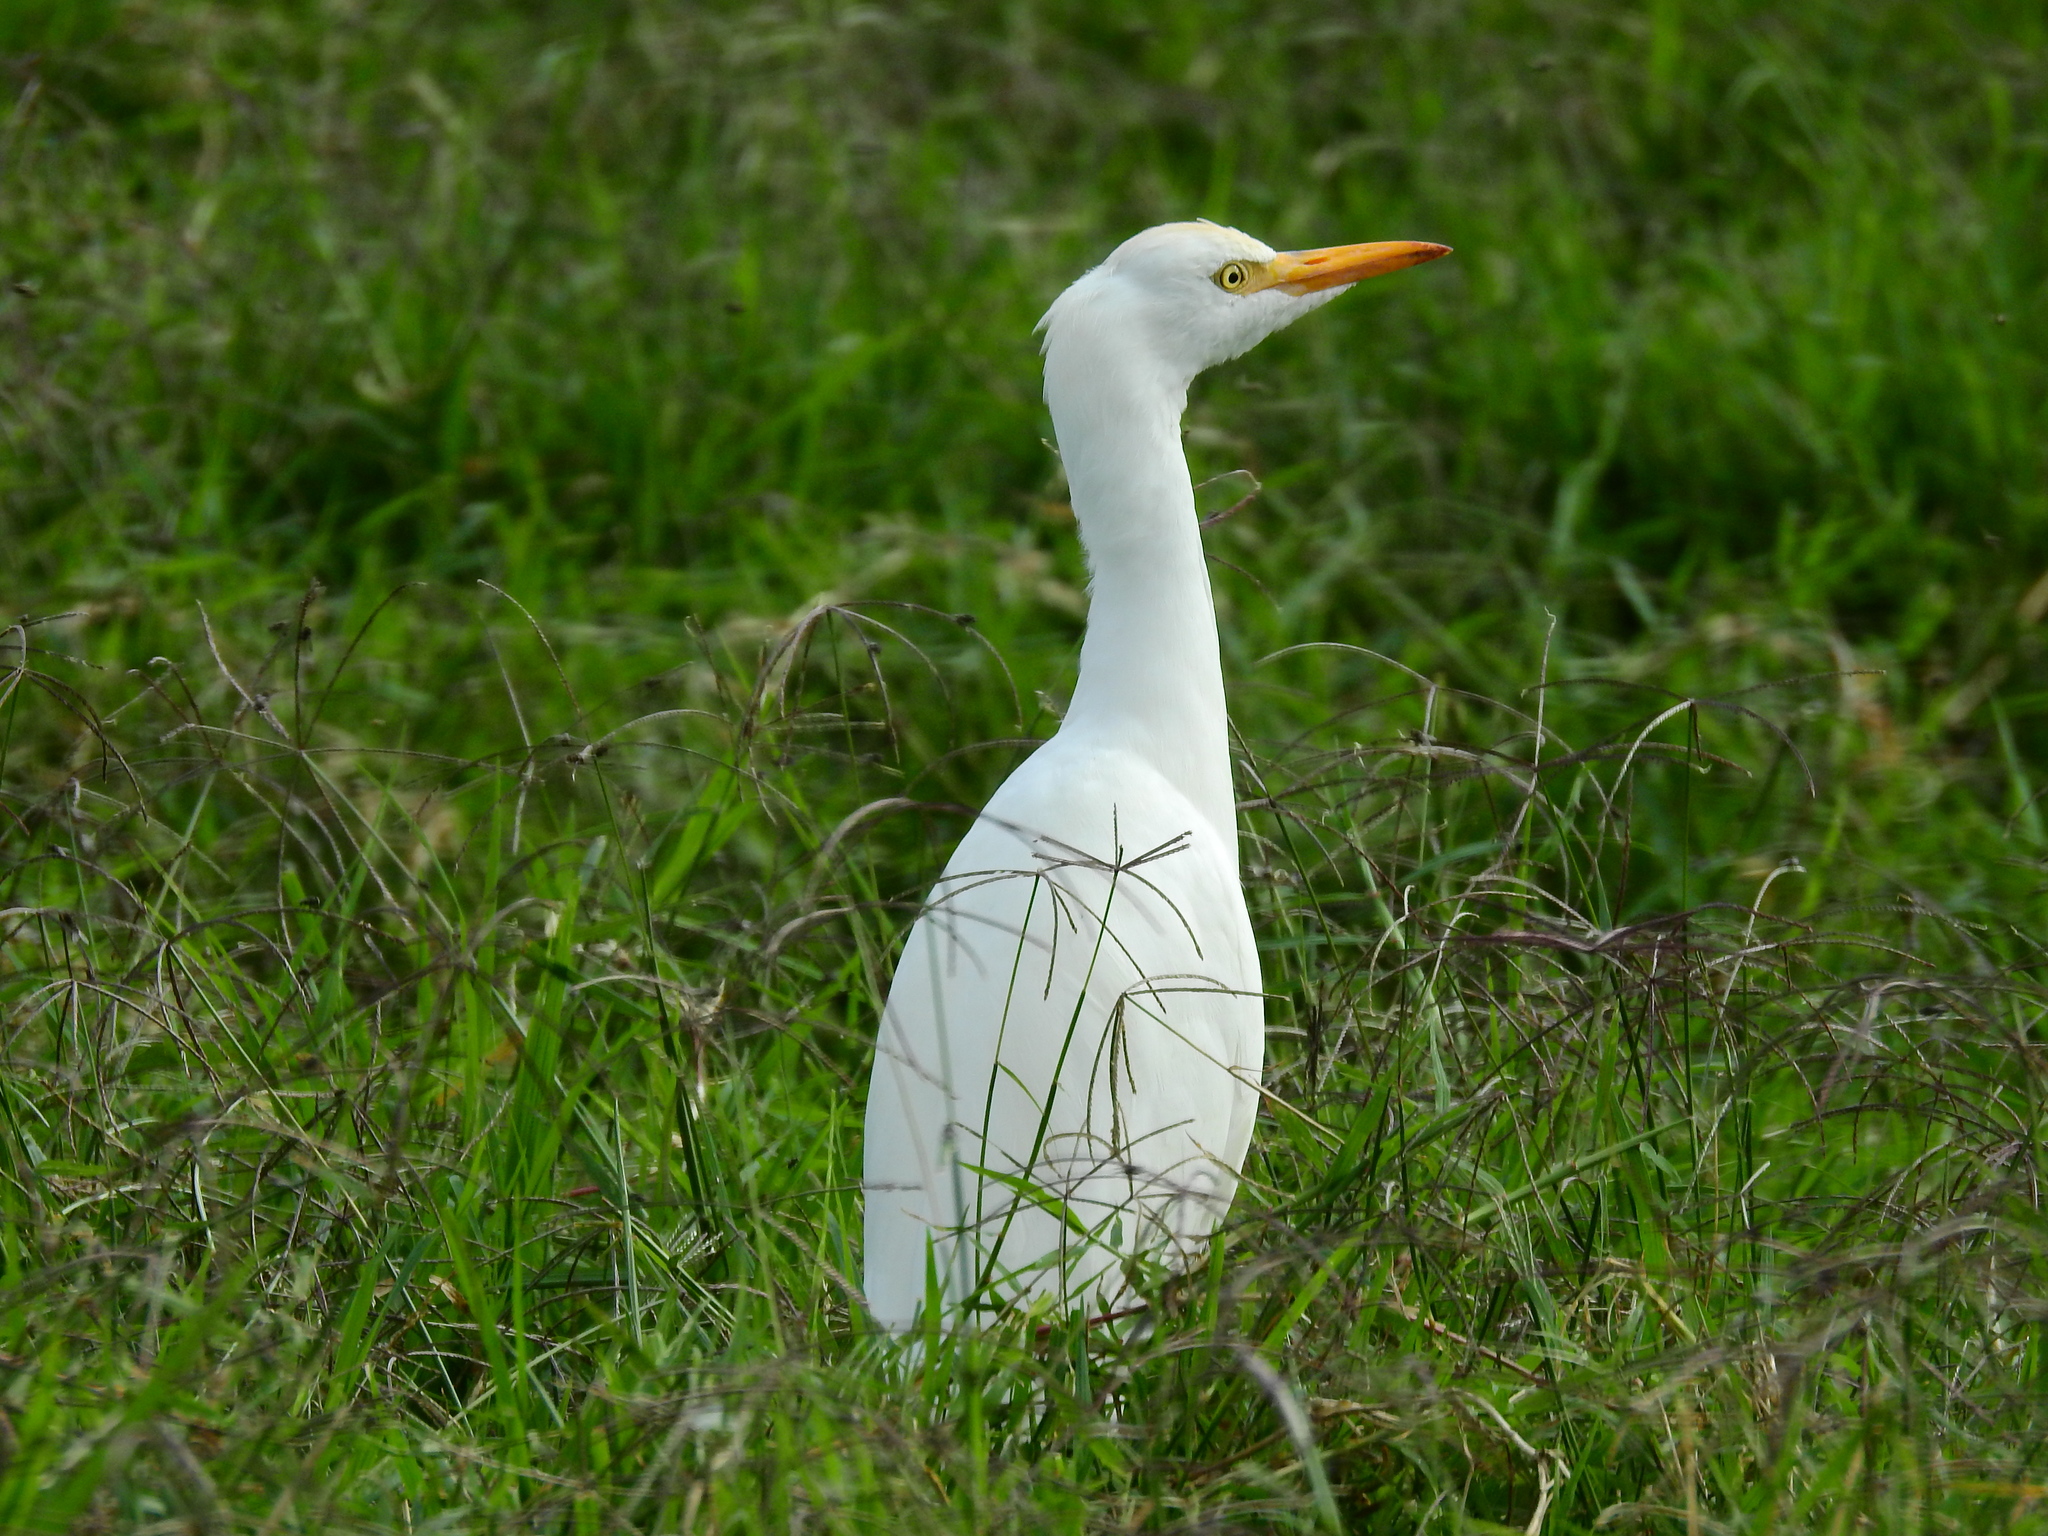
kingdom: Animalia
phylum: Chordata
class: Aves
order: Pelecaniformes
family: Ardeidae
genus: Bubulcus
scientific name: Bubulcus ibis
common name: Cattle egret
